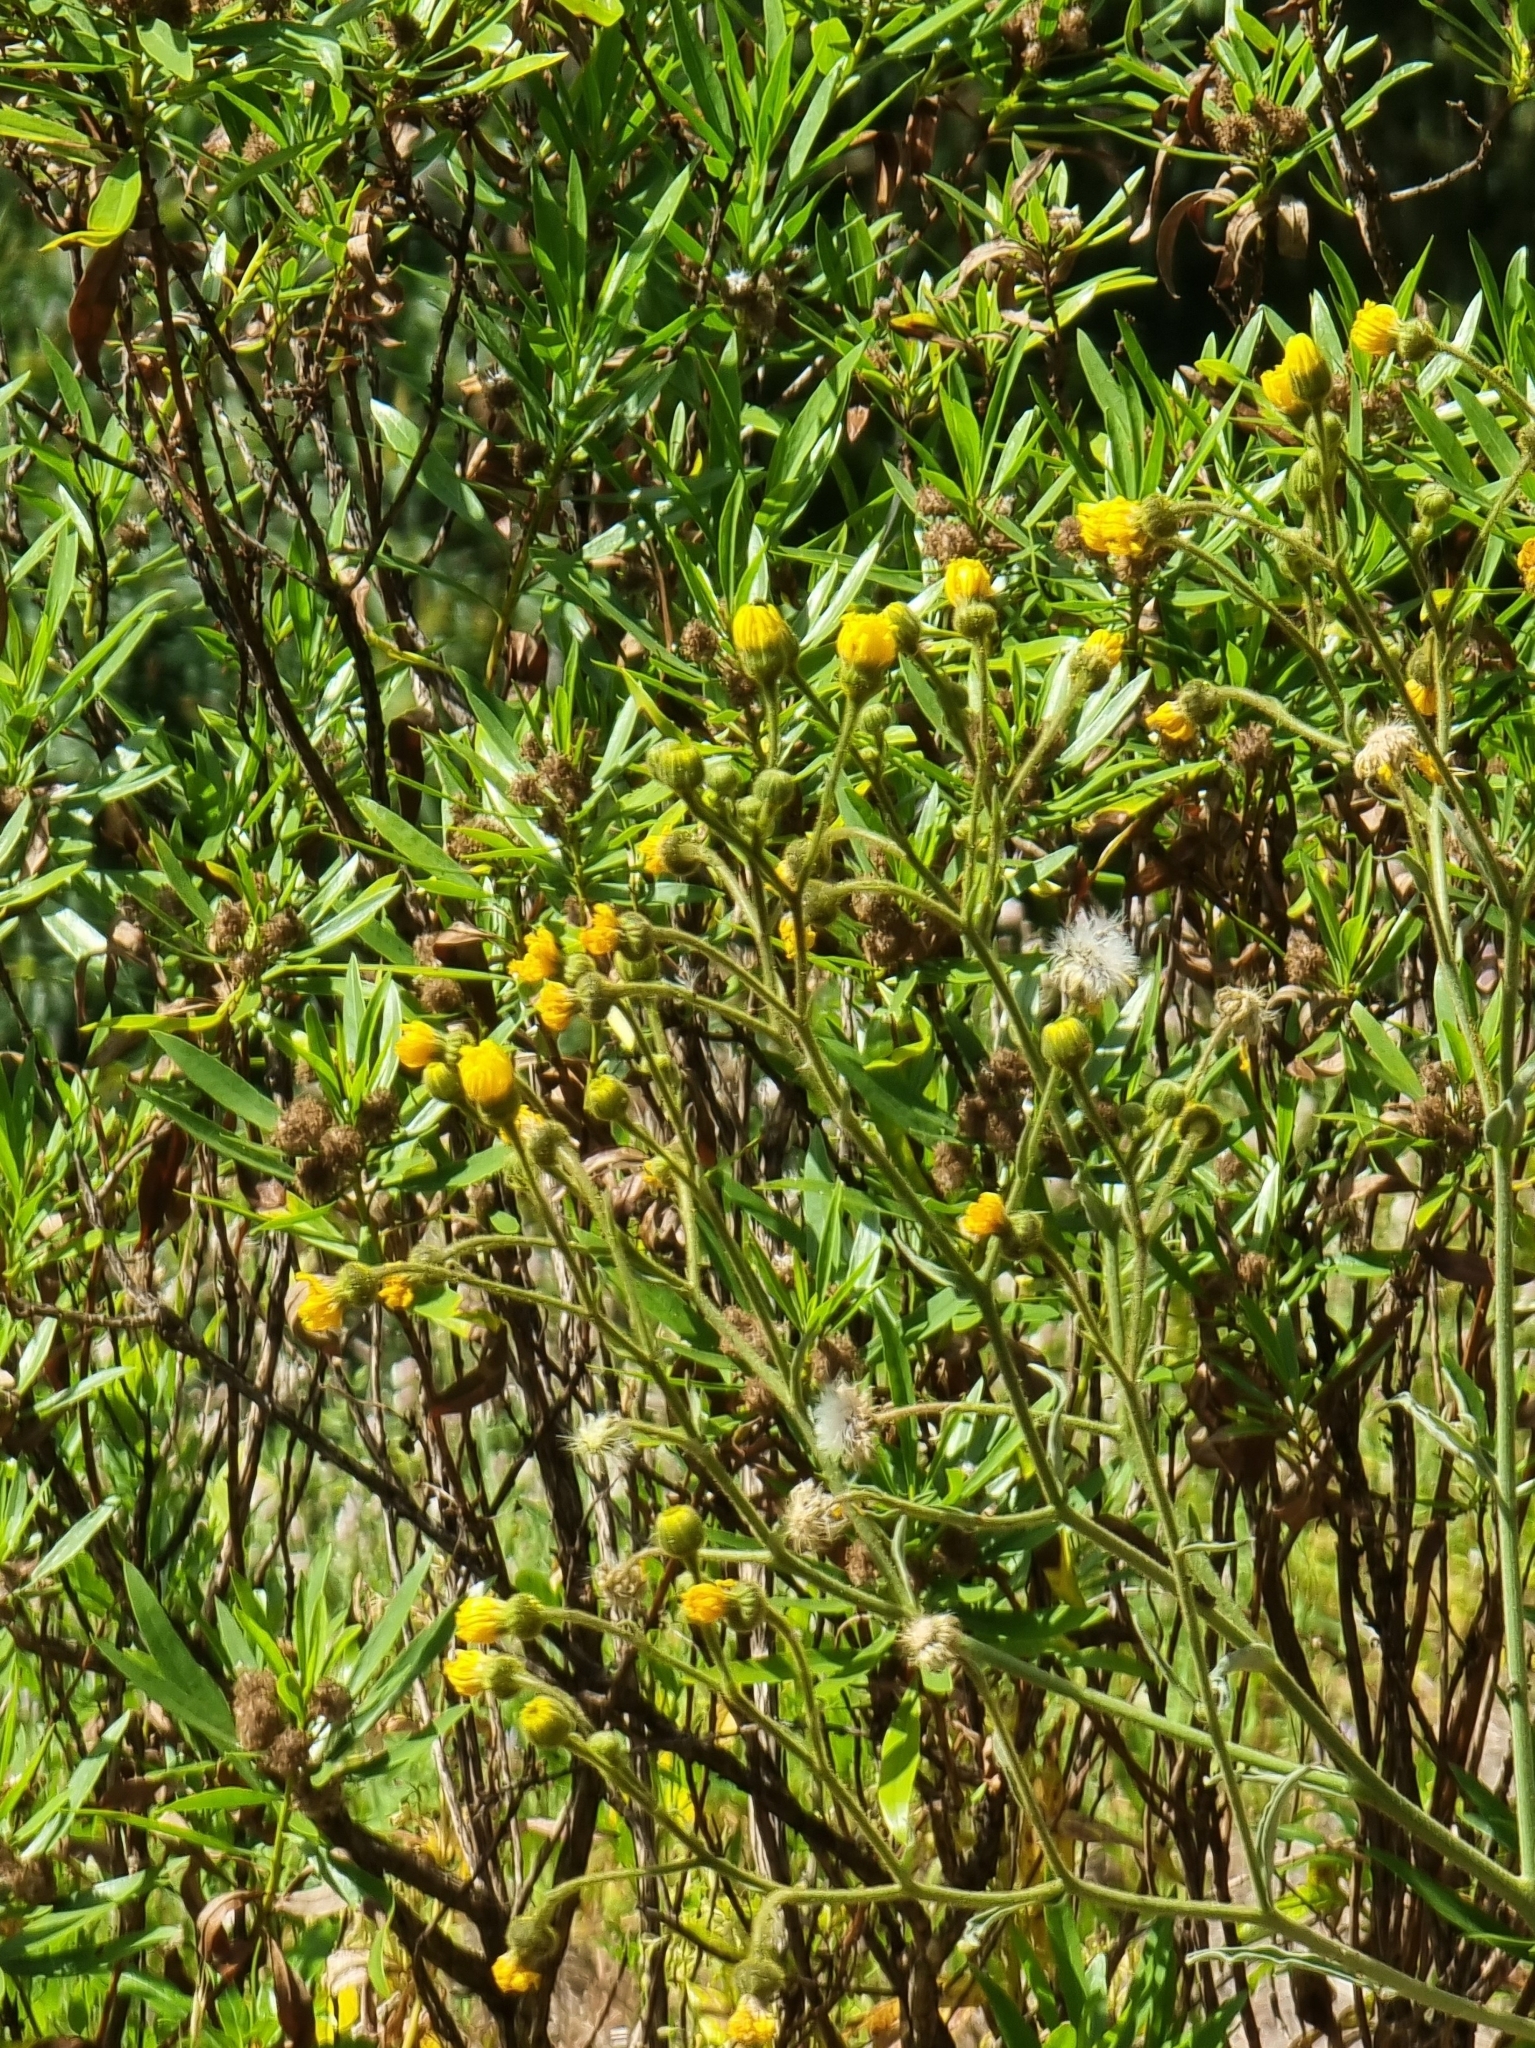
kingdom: Plantae
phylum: Tracheophyta
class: Magnoliopsida
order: Asterales
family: Asteraceae
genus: Andryala
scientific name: Andryala glandulosa
